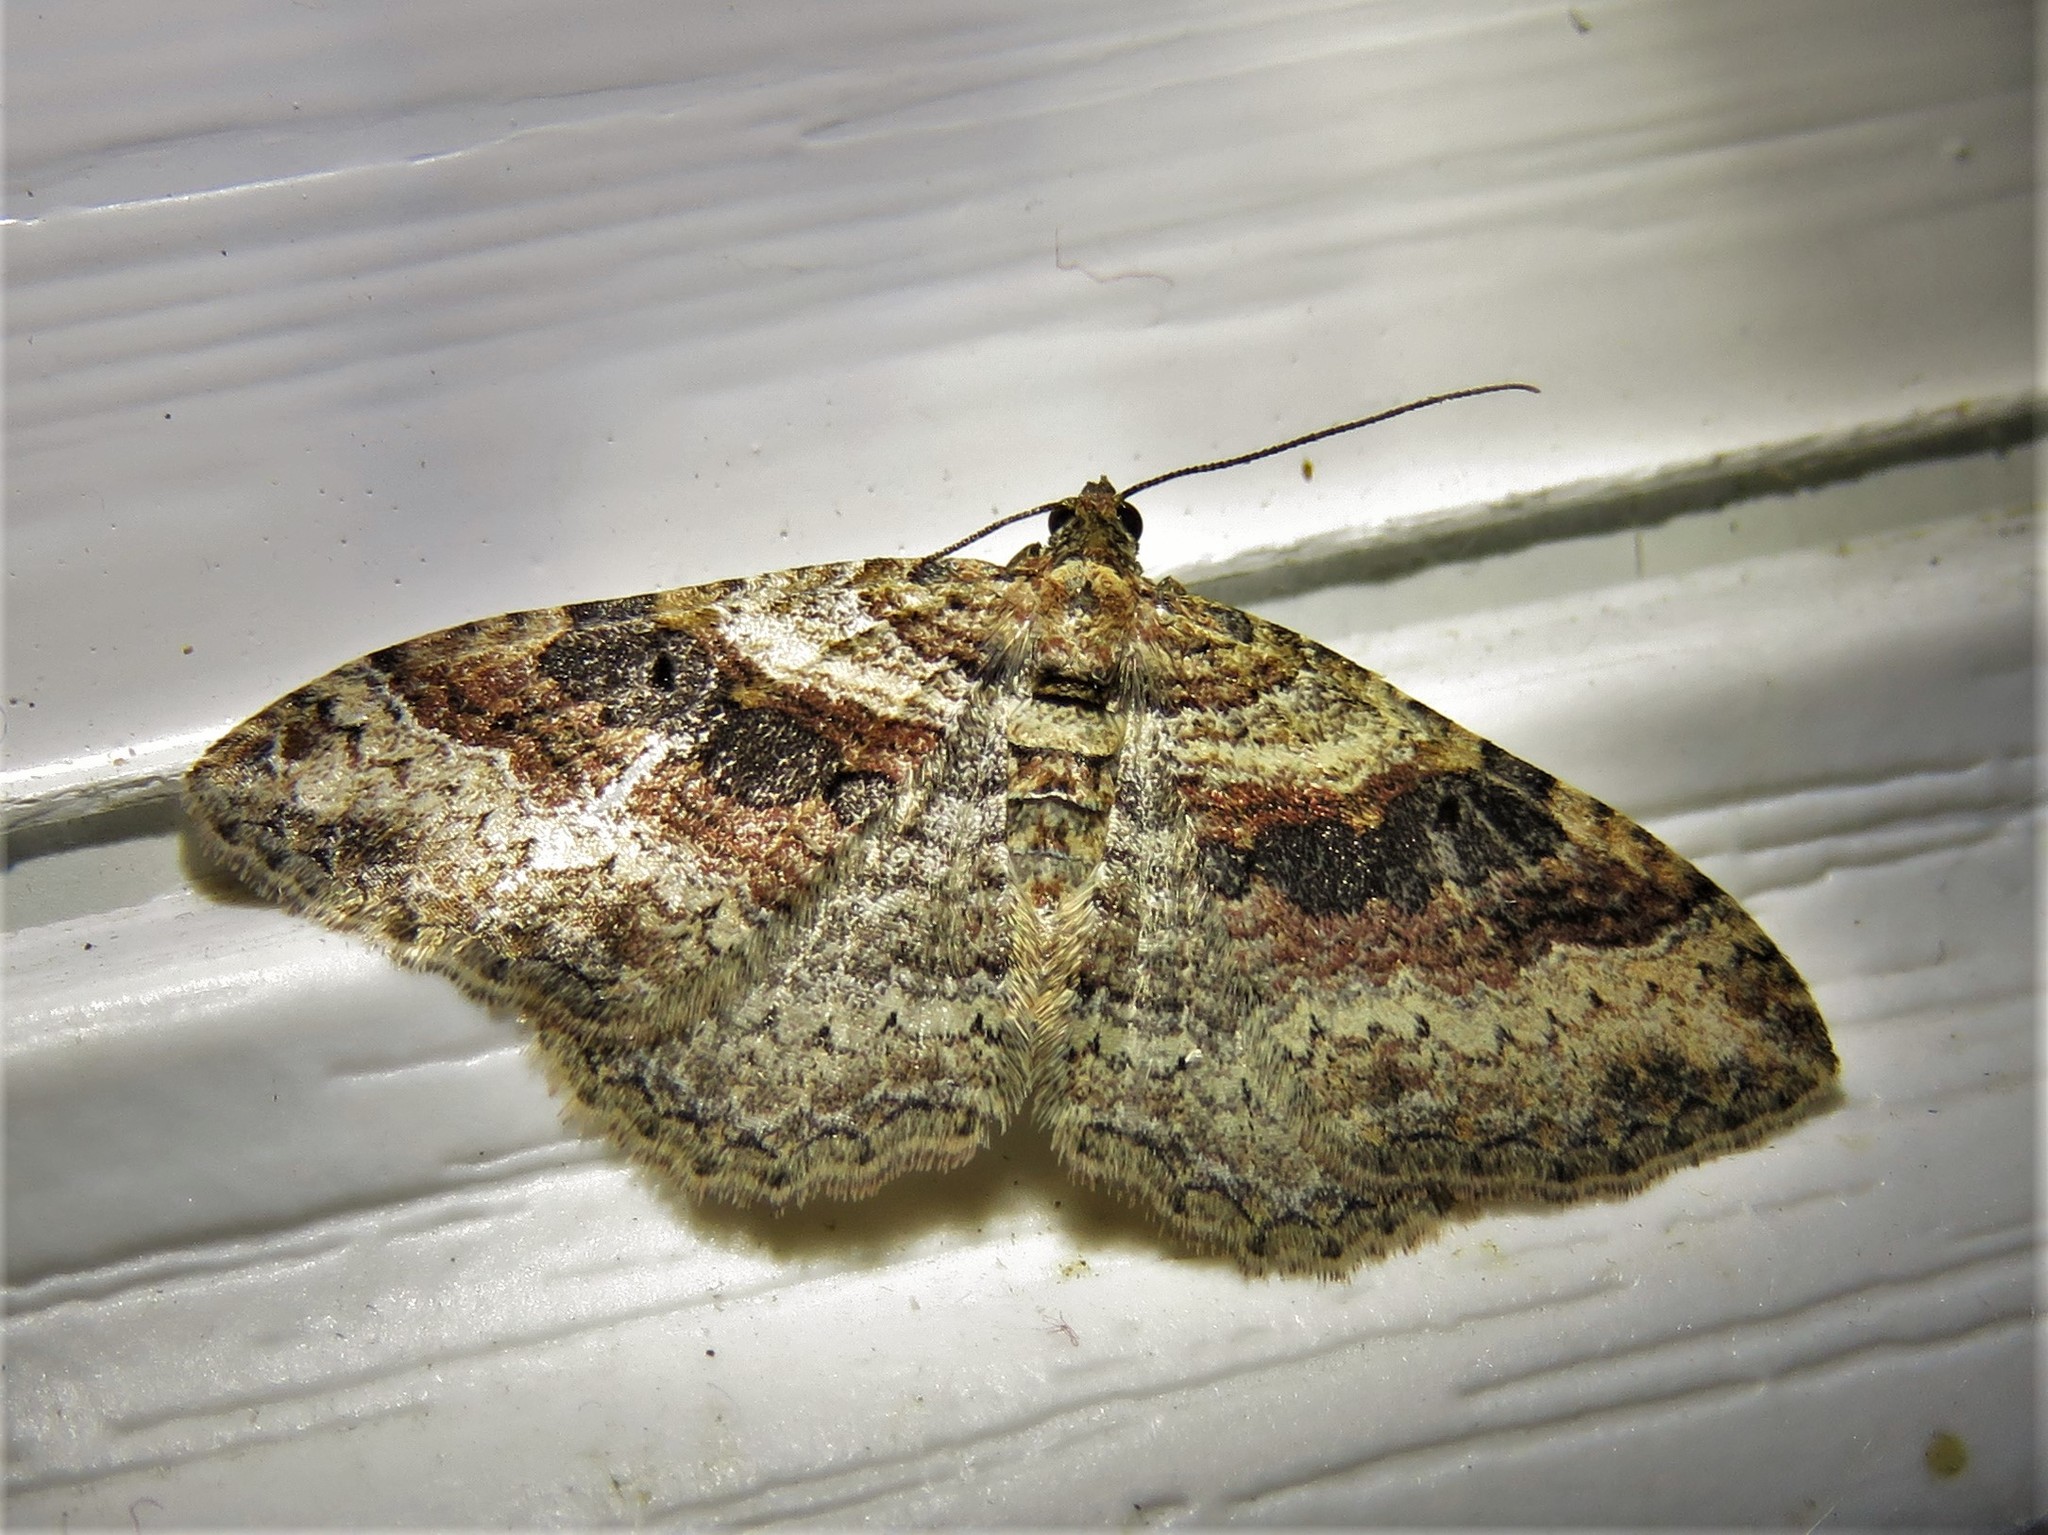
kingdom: Animalia
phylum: Arthropoda
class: Insecta
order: Lepidoptera
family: Geometridae
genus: Costaconvexa
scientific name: Costaconvexa centrostrigaria
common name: Bent-line carpet
